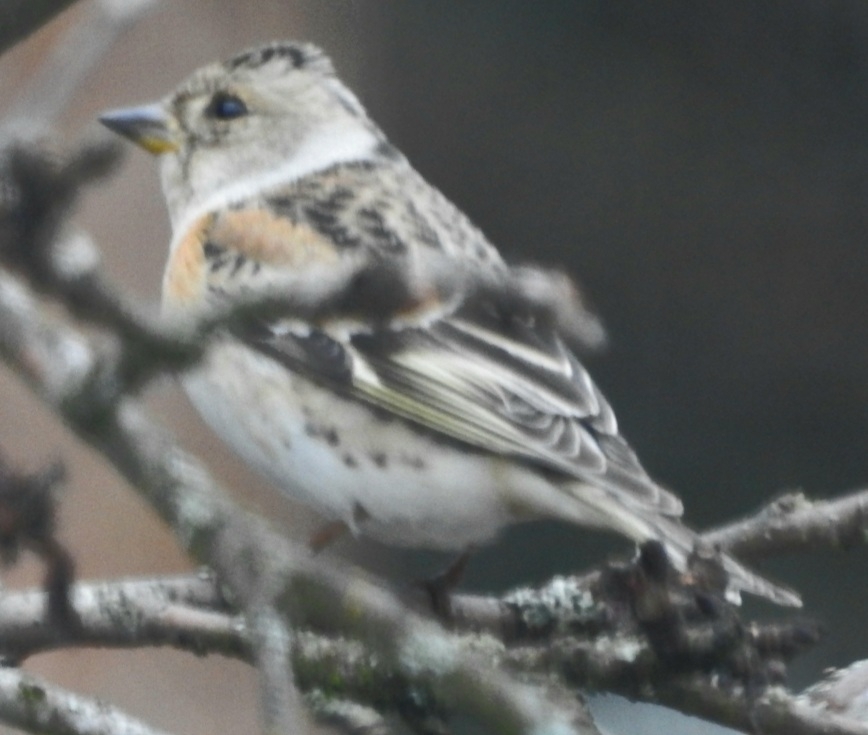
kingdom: Animalia
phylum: Chordata
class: Aves
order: Passeriformes
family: Fringillidae
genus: Fringilla
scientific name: Fringilla montifringilla
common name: Brambling
